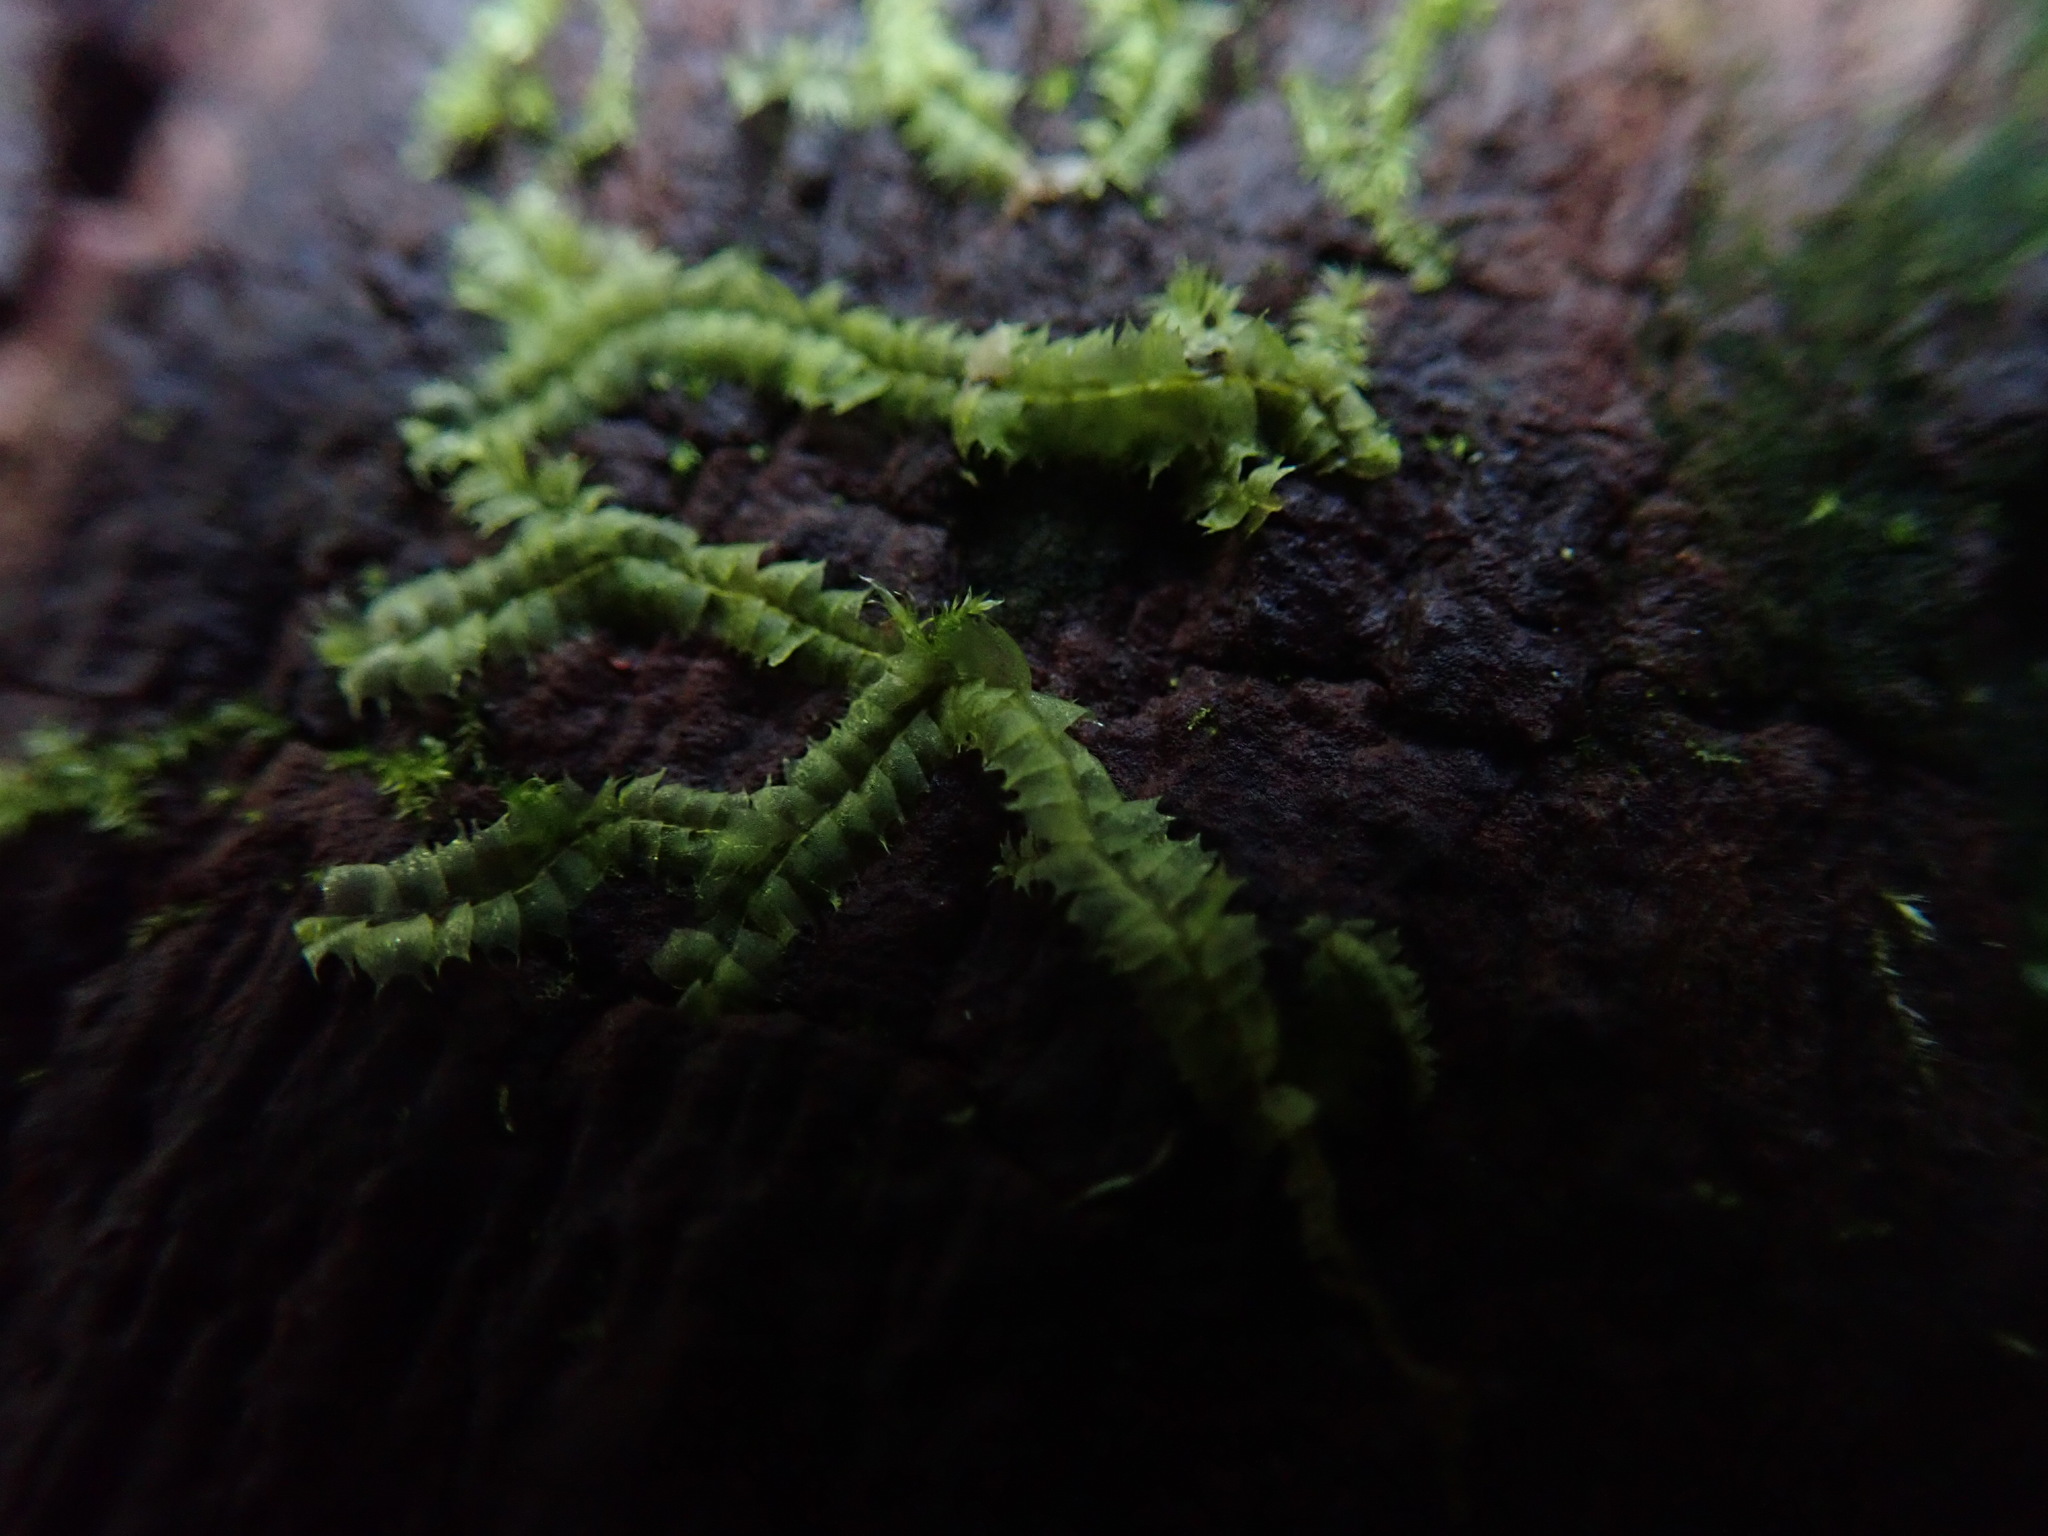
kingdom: Plantae
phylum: Marchantiophyta
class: Jungermanniopsida
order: Jungermanniales
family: Lophocoleaceae
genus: Lophocolea
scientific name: Lophocolea bidentata
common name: Bifid crestwort
